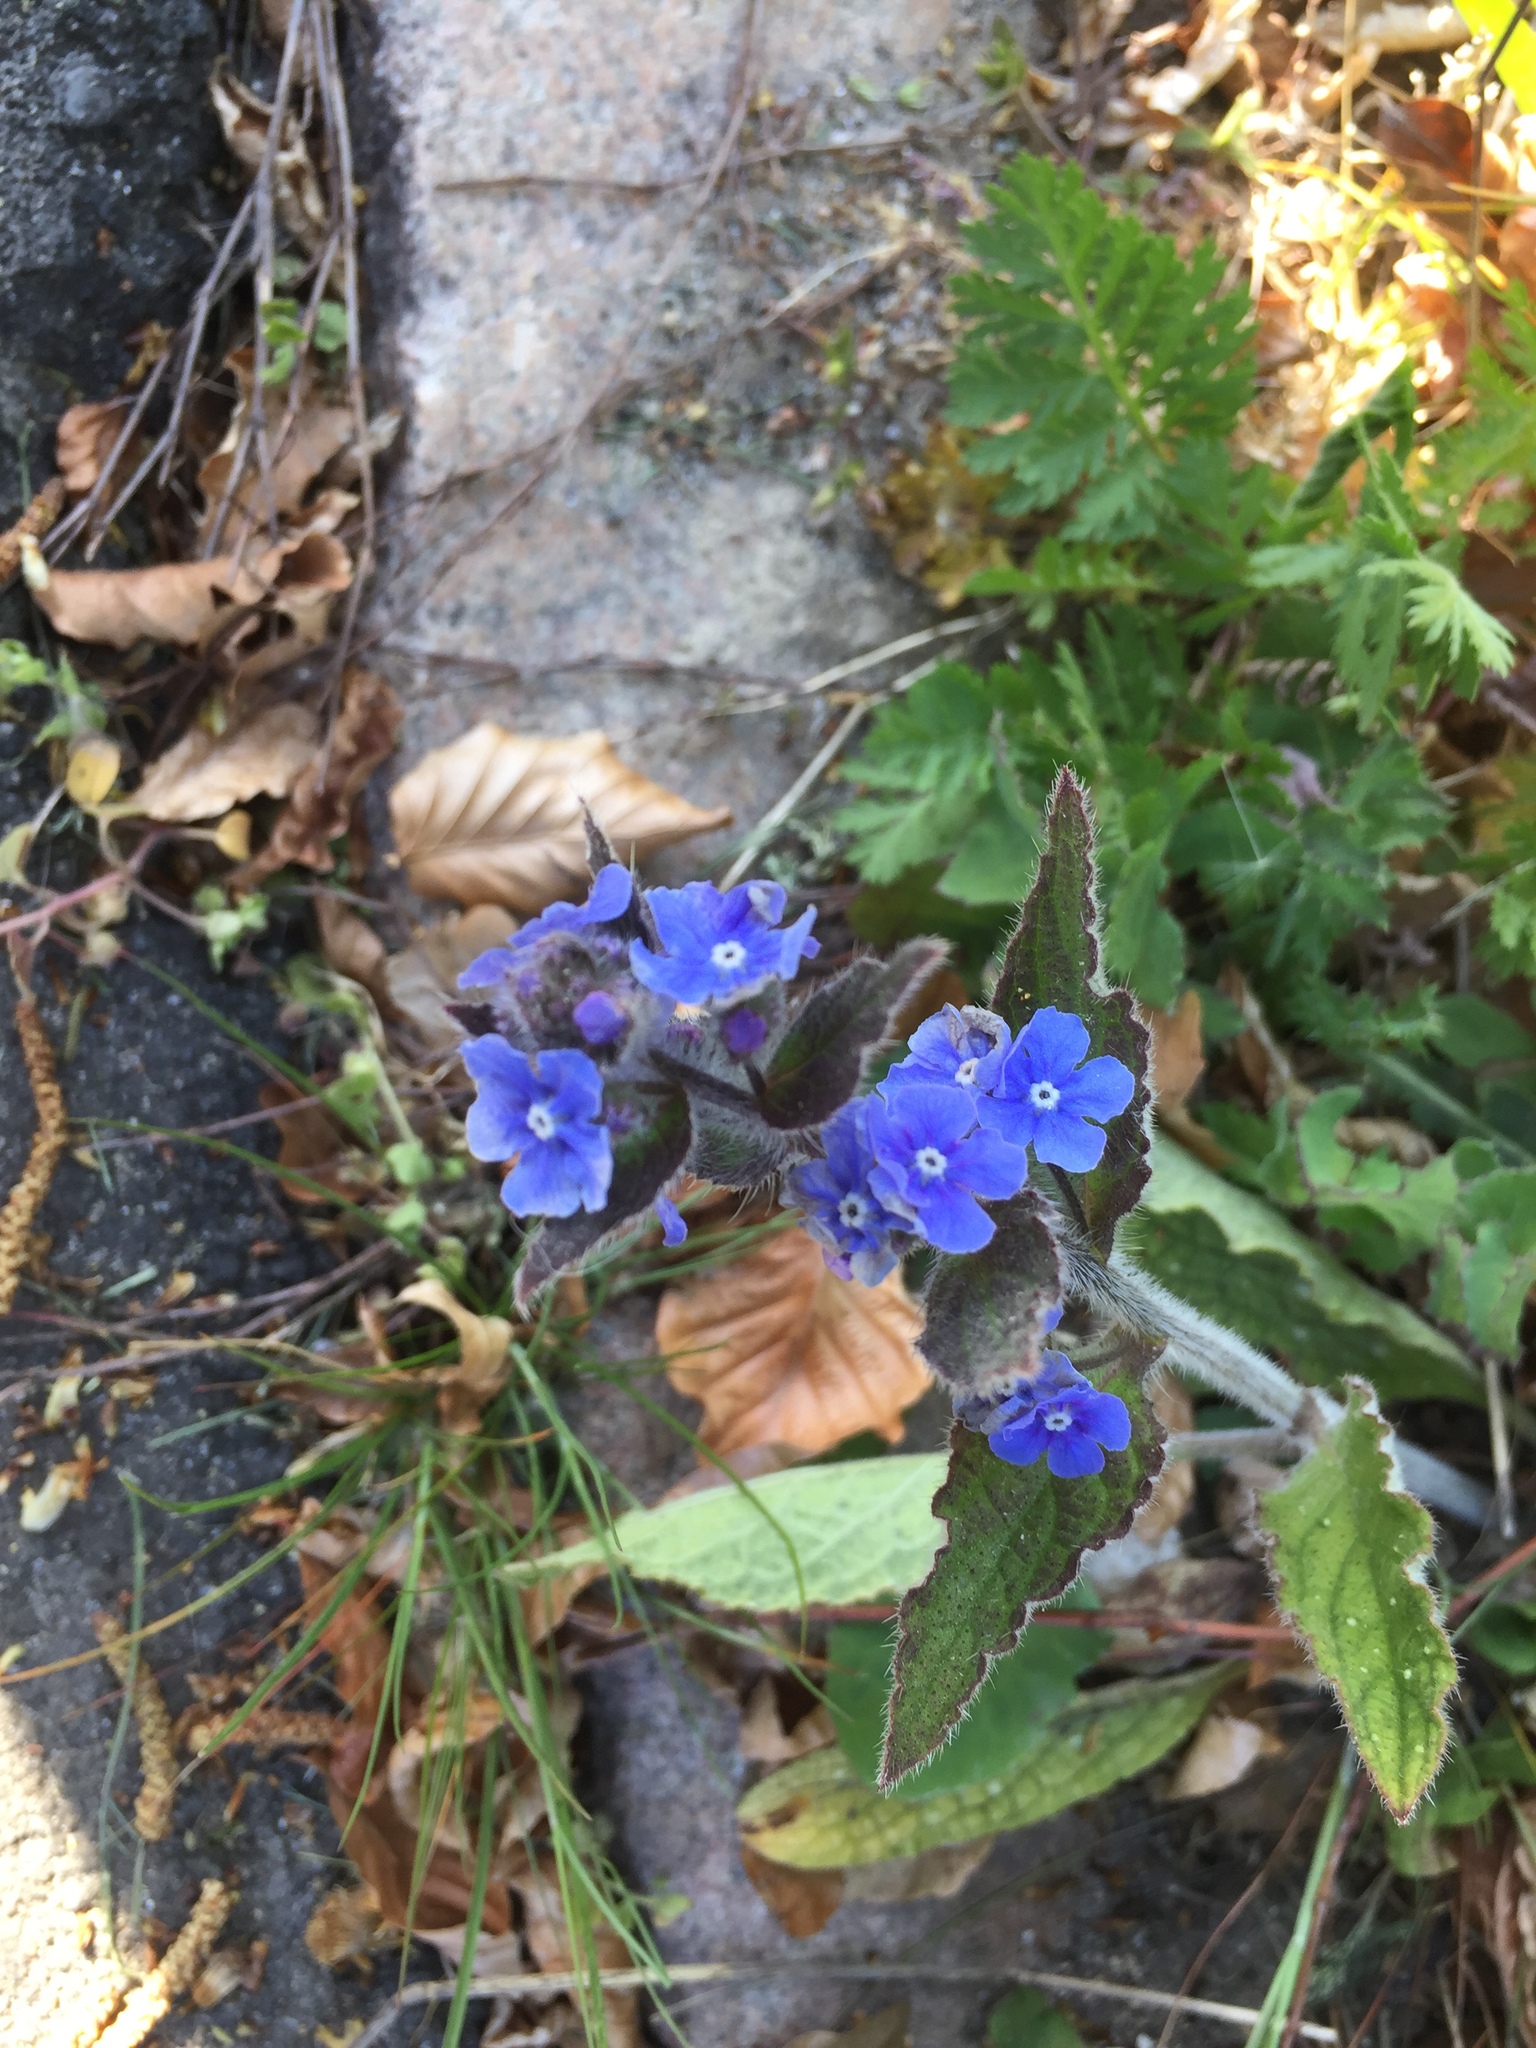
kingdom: Plantae
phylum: Tracheophyta
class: Magnoliopsida
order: Boraginales
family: Boraginaceae
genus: Pentaglottis
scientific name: Pentaglottis sempervirens
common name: Green alkanet
